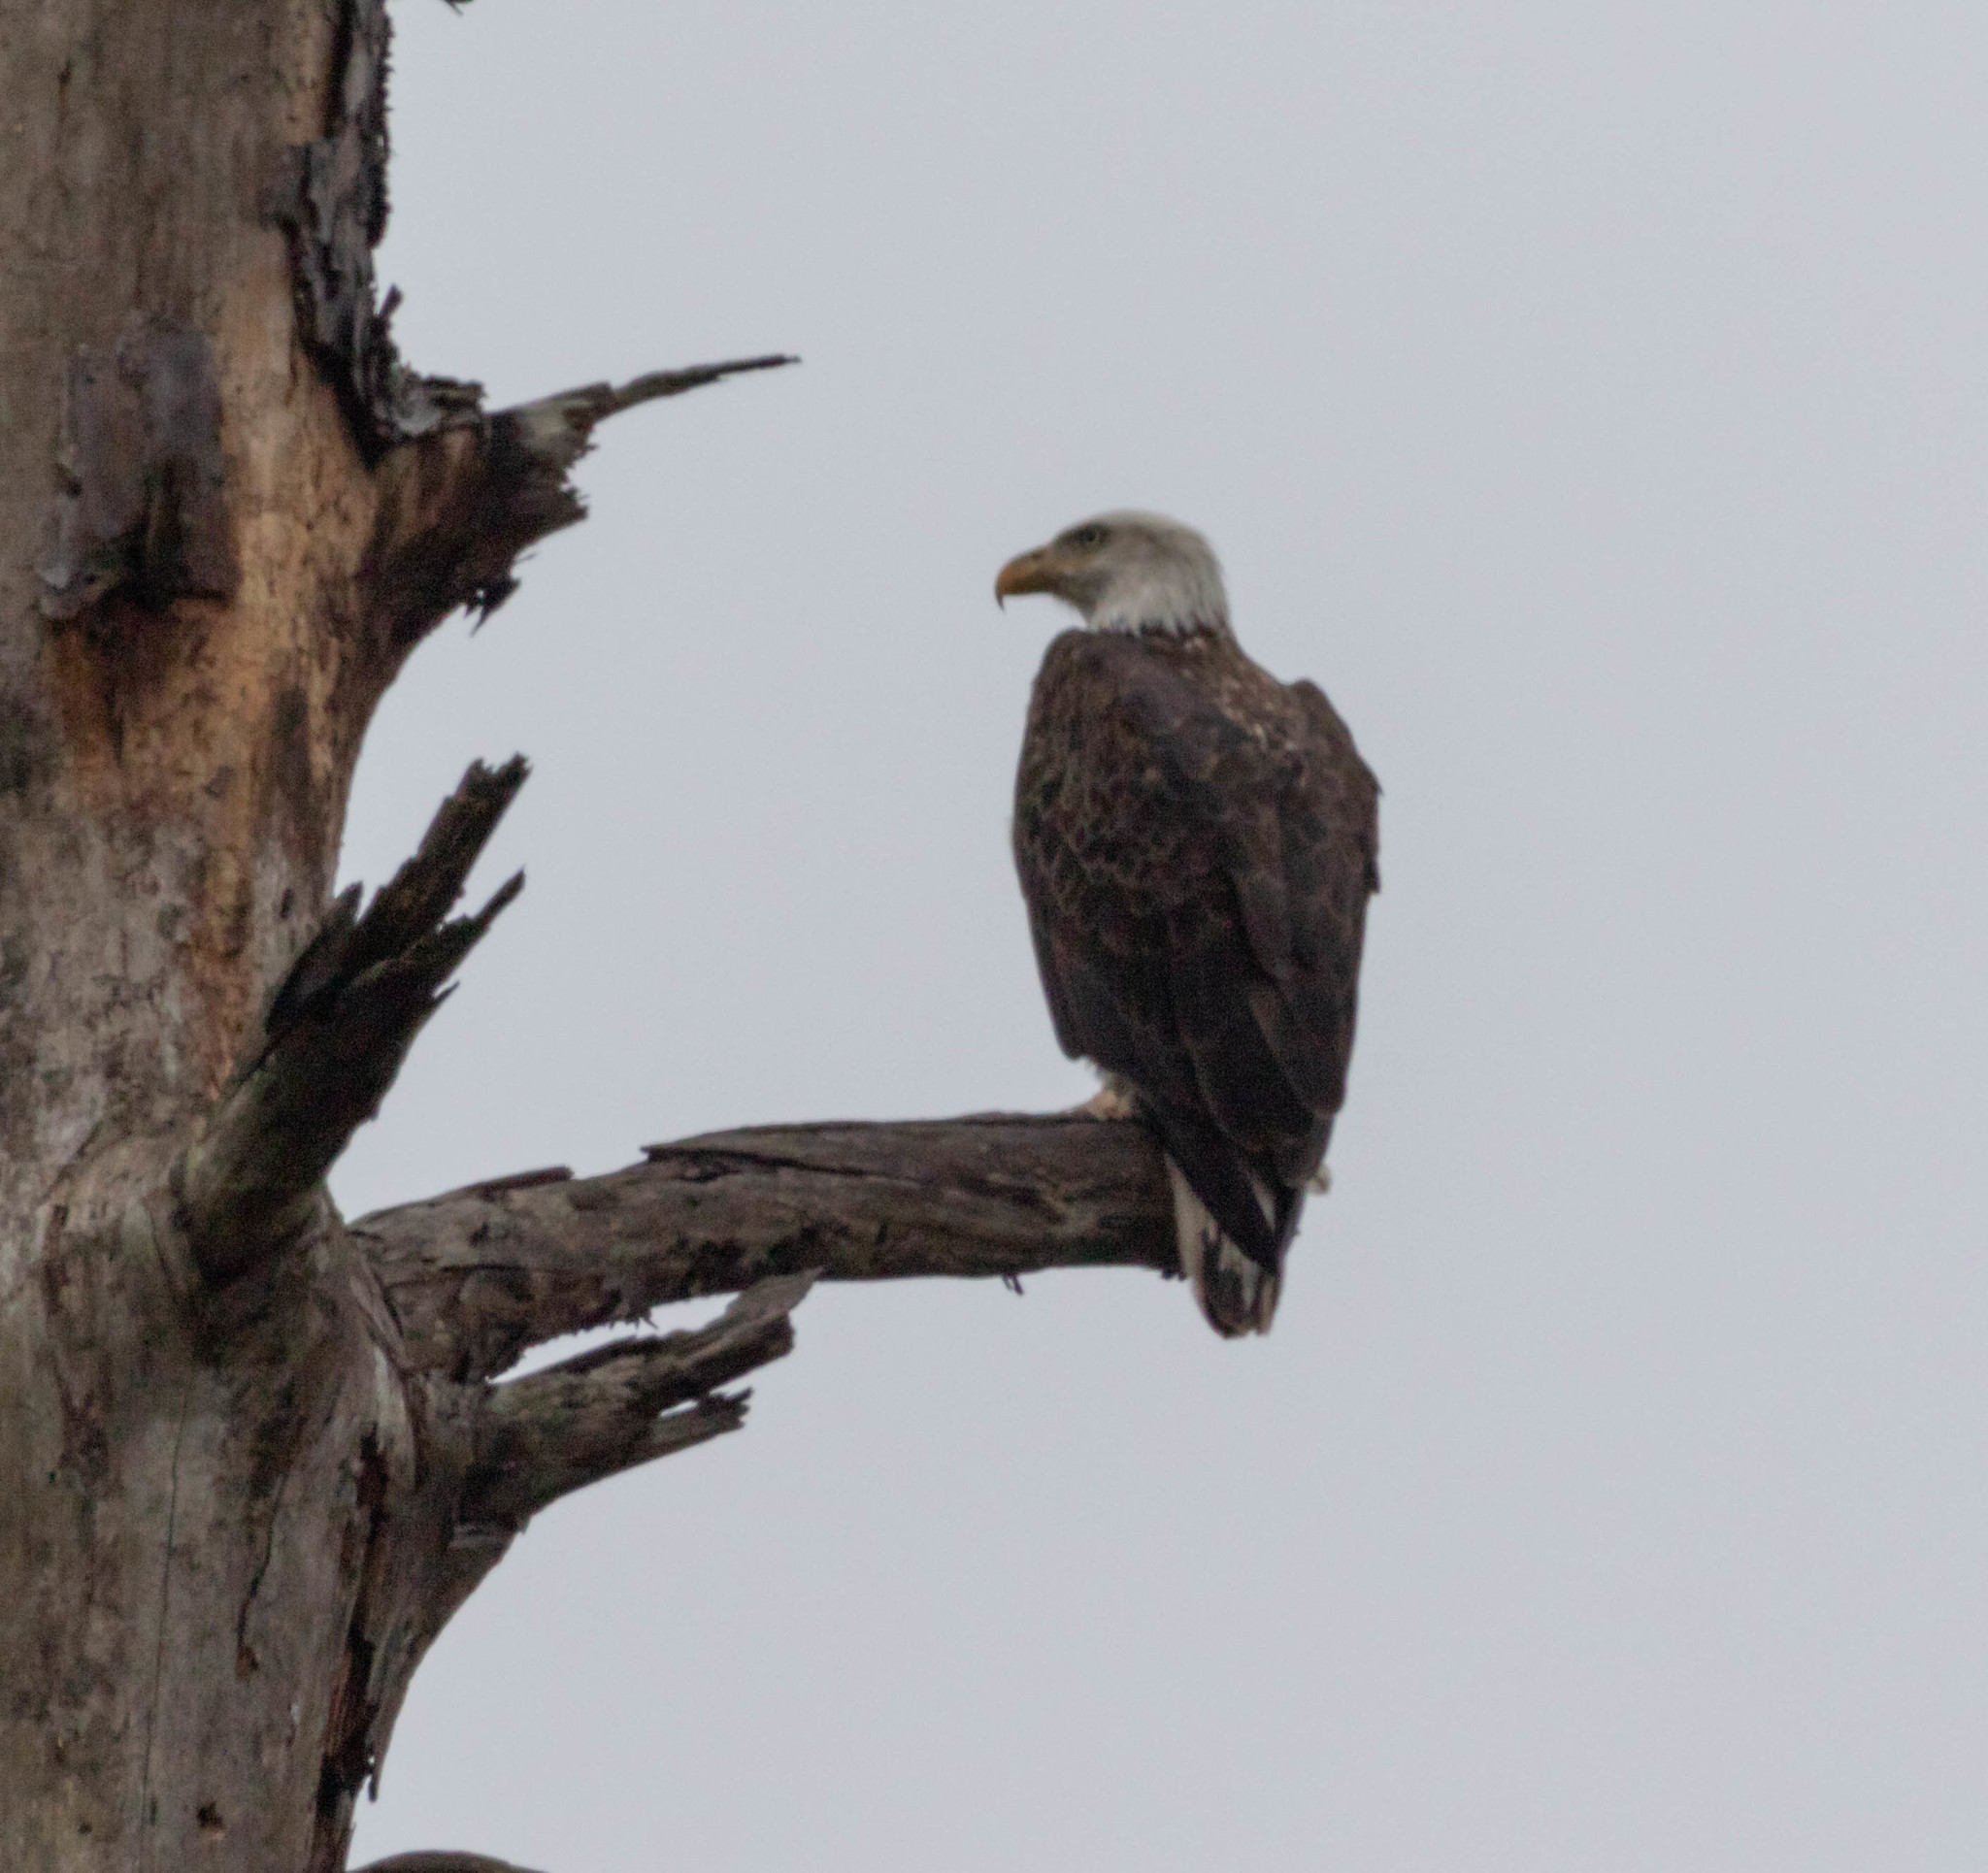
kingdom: Animalia
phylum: Chordata
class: Aves
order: Accipitriformes
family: Accipitridae
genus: Haliaeetus
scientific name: Haliaeetus leucocephalus
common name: Bald eagle
